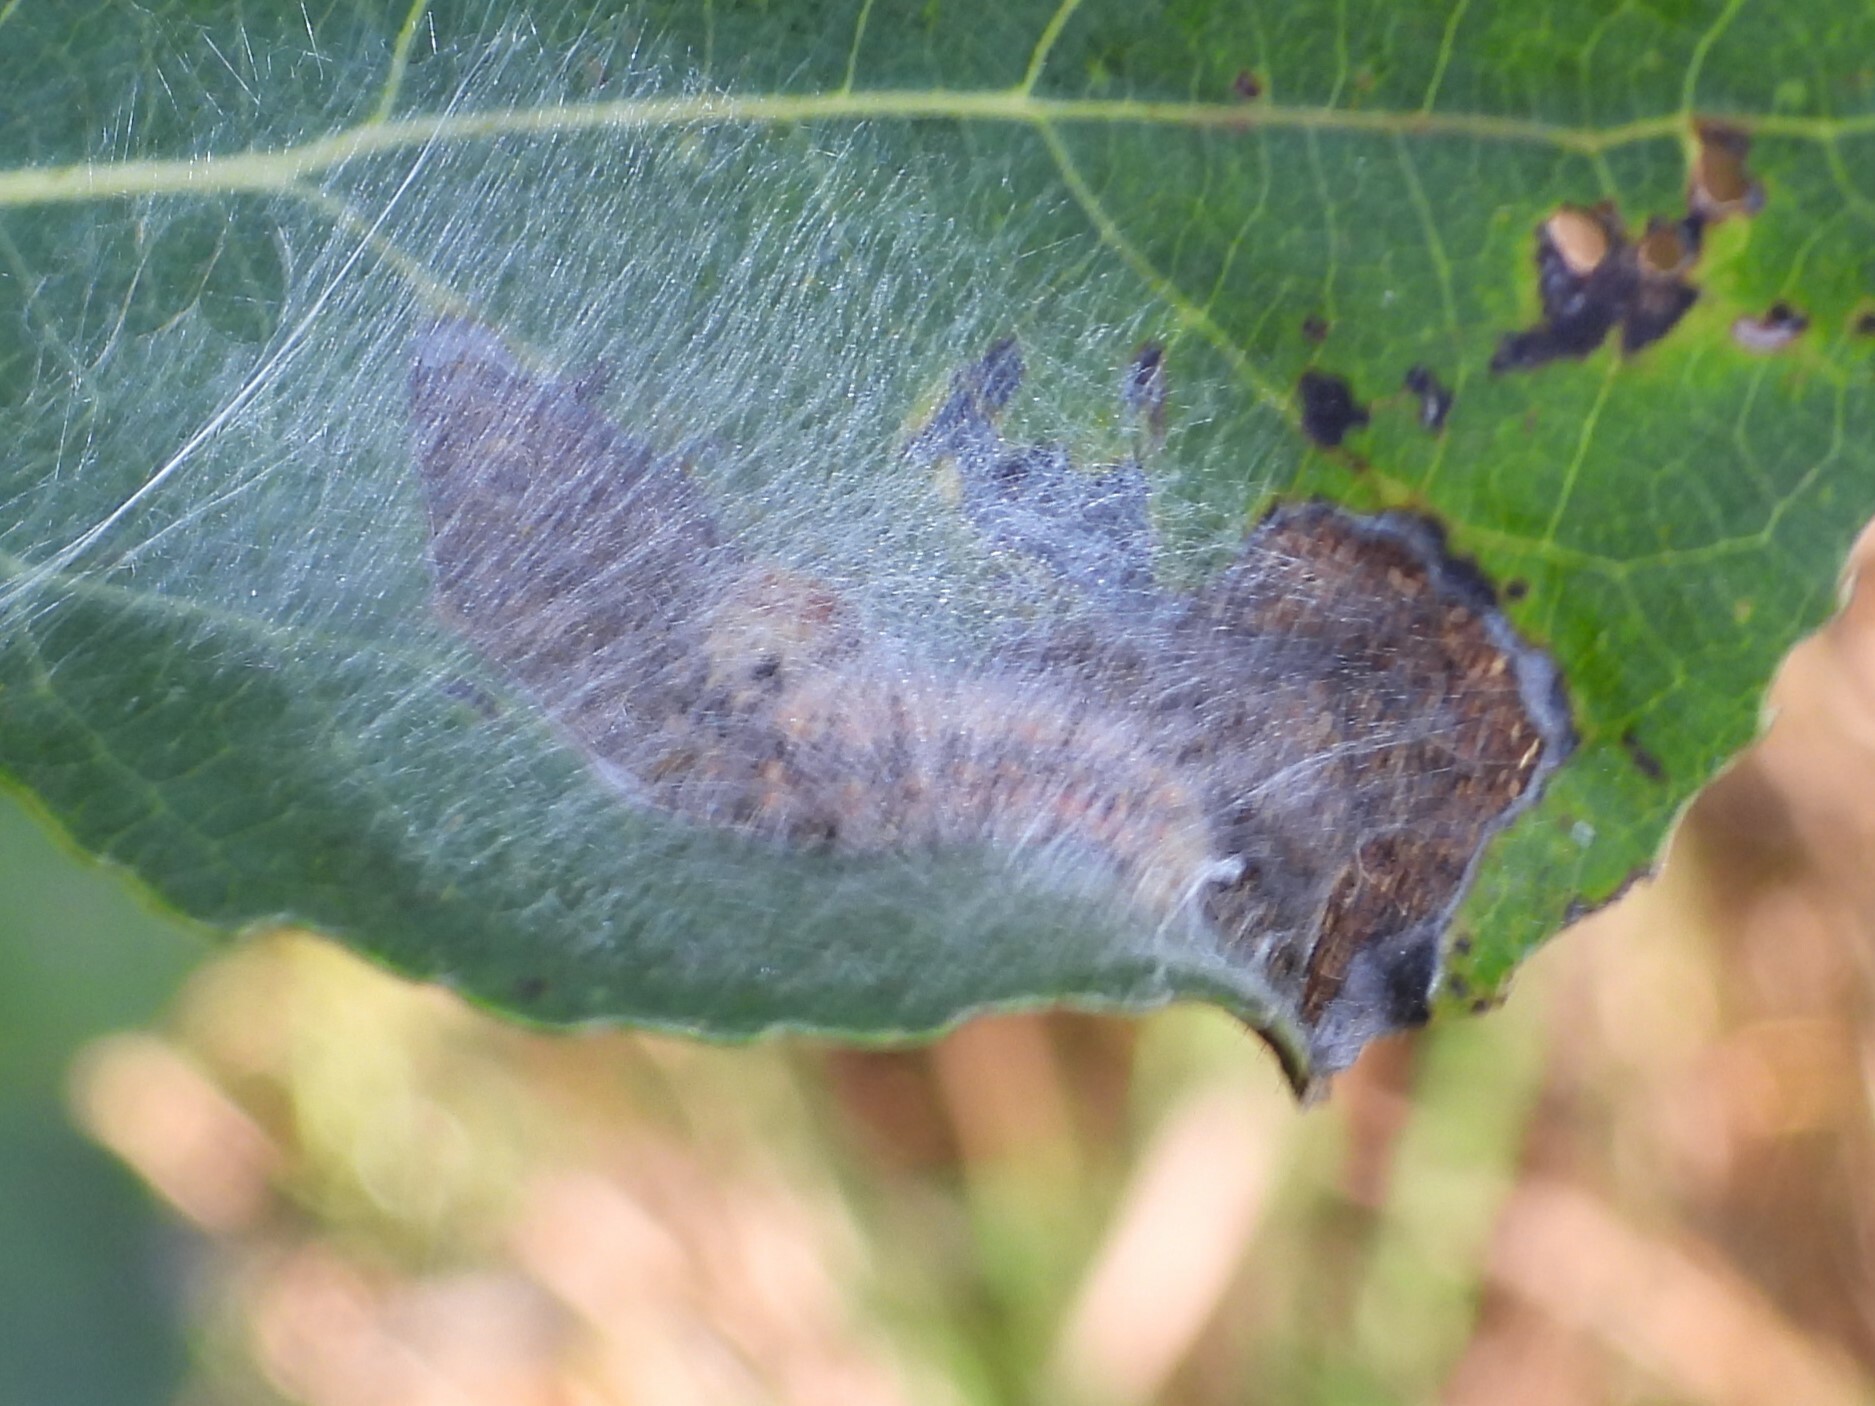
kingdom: Animalia
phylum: Arthropoda
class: Insecta
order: Lepidoptera
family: Notodontidae
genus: Clostera
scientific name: Clostera albosigma
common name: Sigmoid prominent
